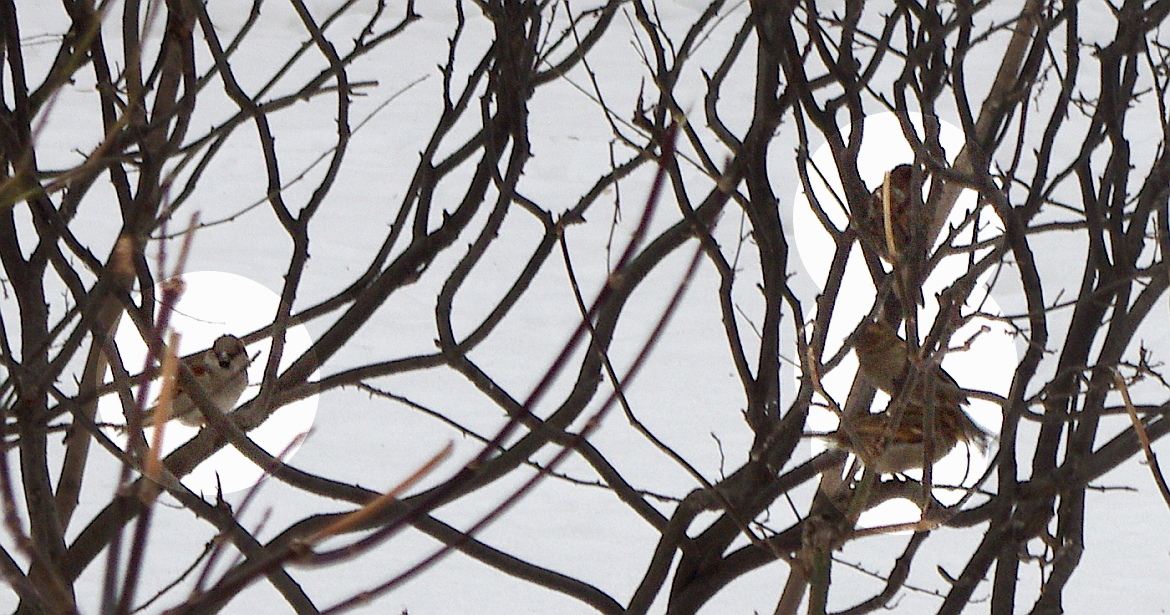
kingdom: Animalia
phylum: Chordata
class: Aves
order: Passeriformes
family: Passeridae
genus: Passer
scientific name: Passer domesticus
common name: House sparrow
